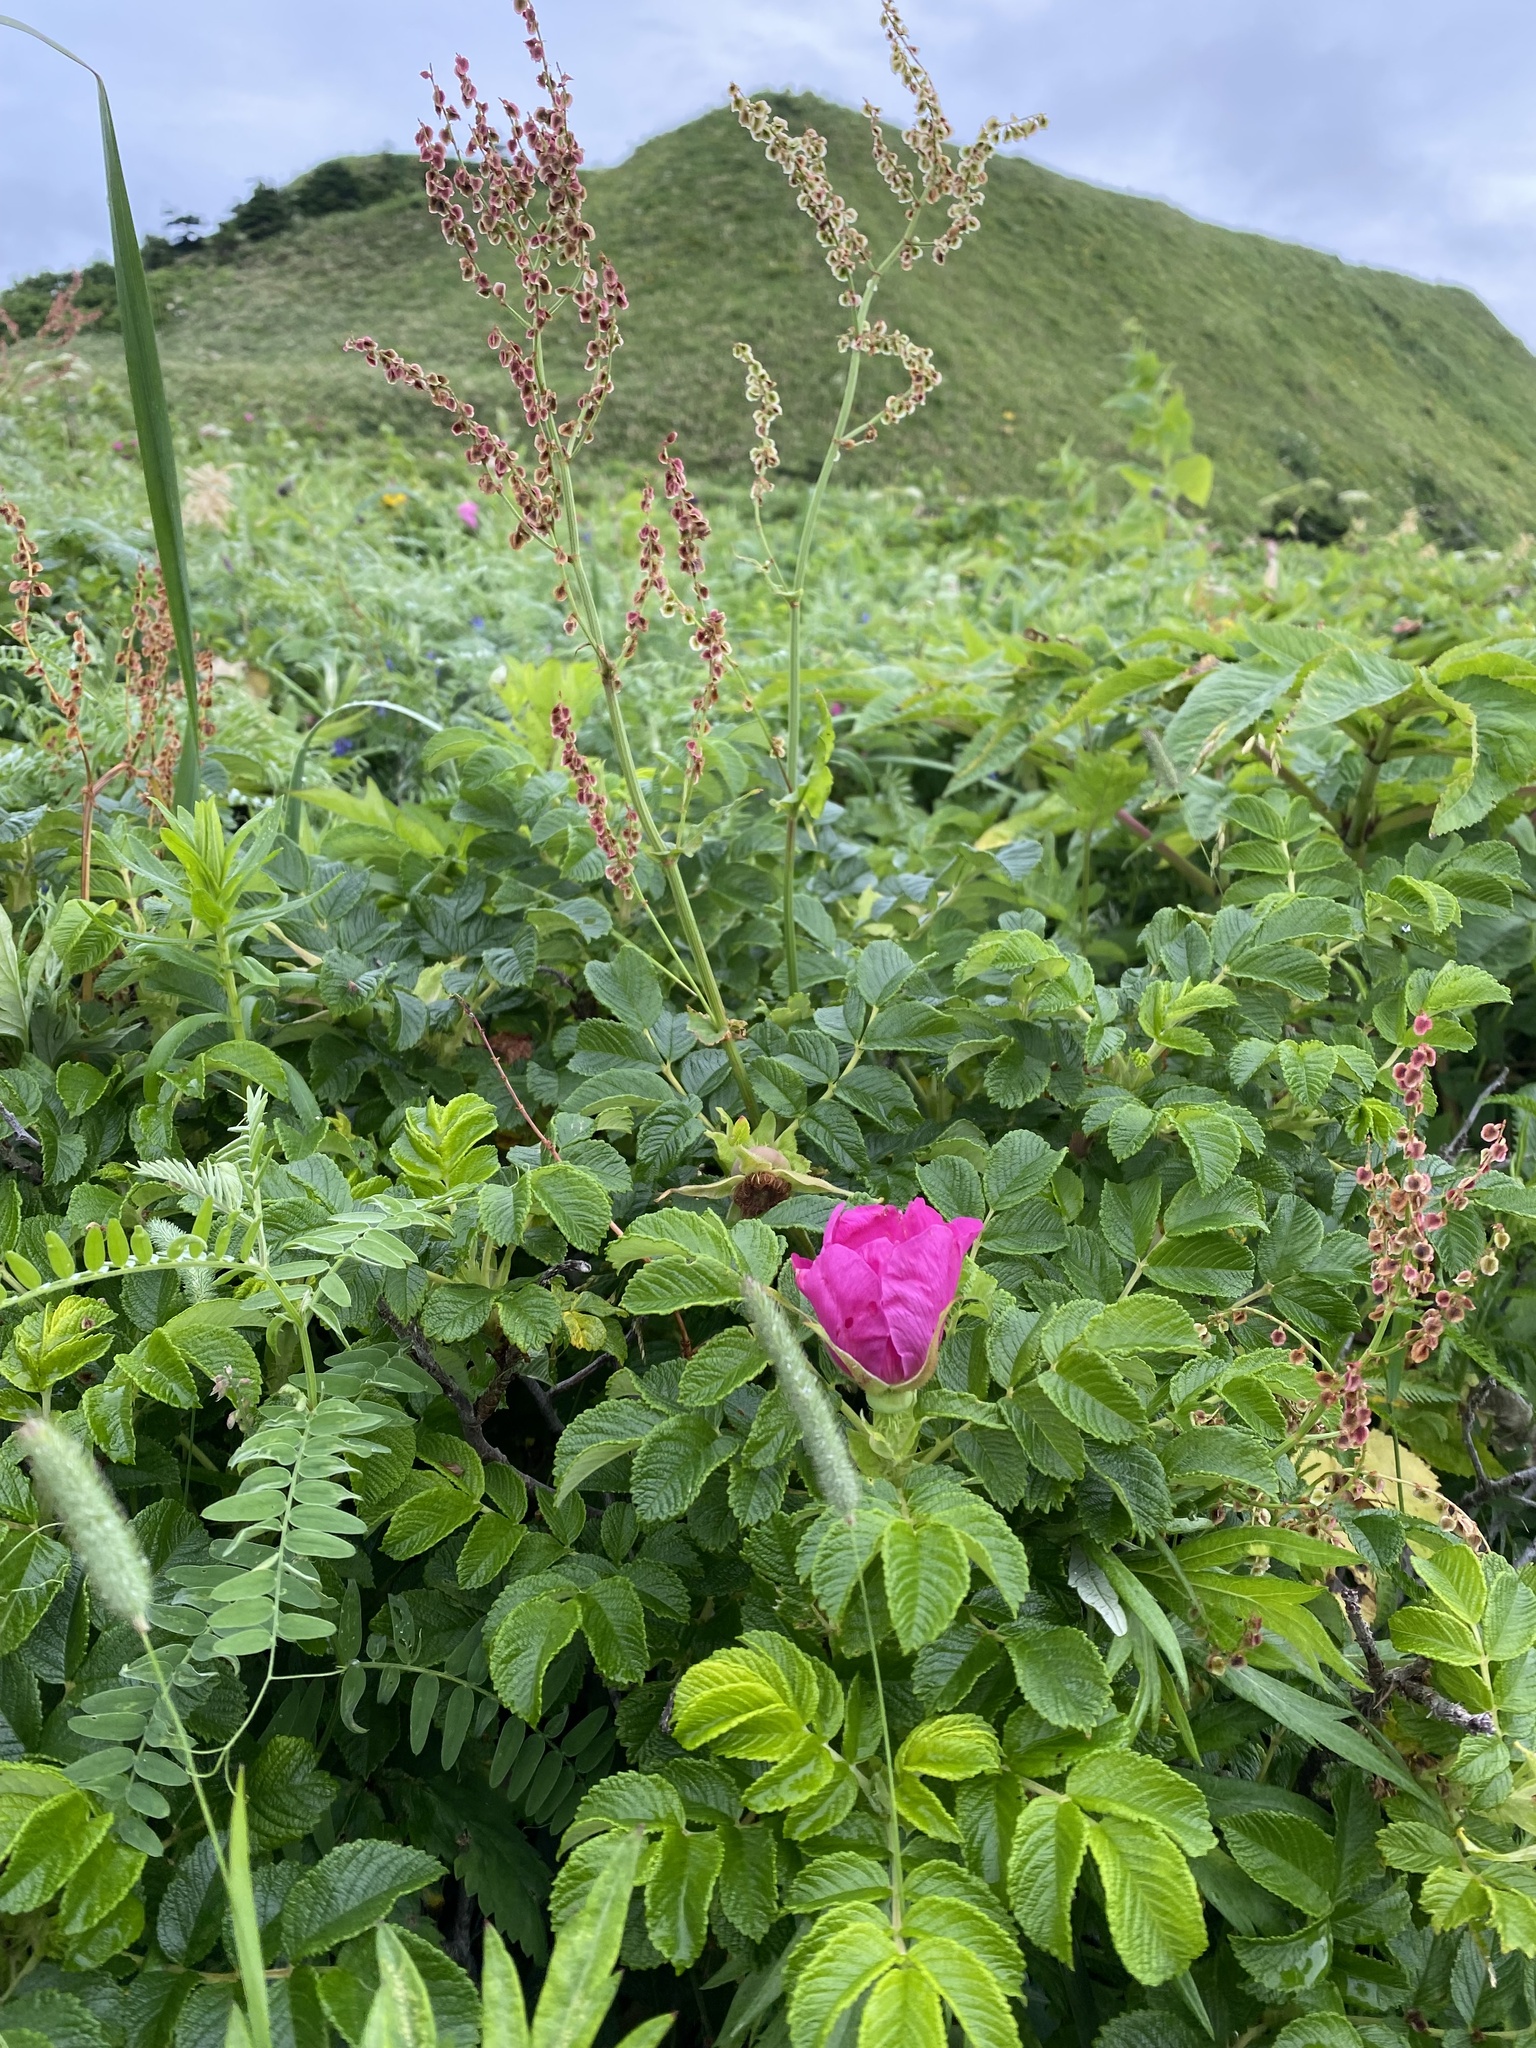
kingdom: Plantae
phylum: Tracheophyta
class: Magnoliopsida
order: Rosales
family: Rosaceae
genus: Rosa
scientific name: Rosa rugosa
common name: Japanese rose
